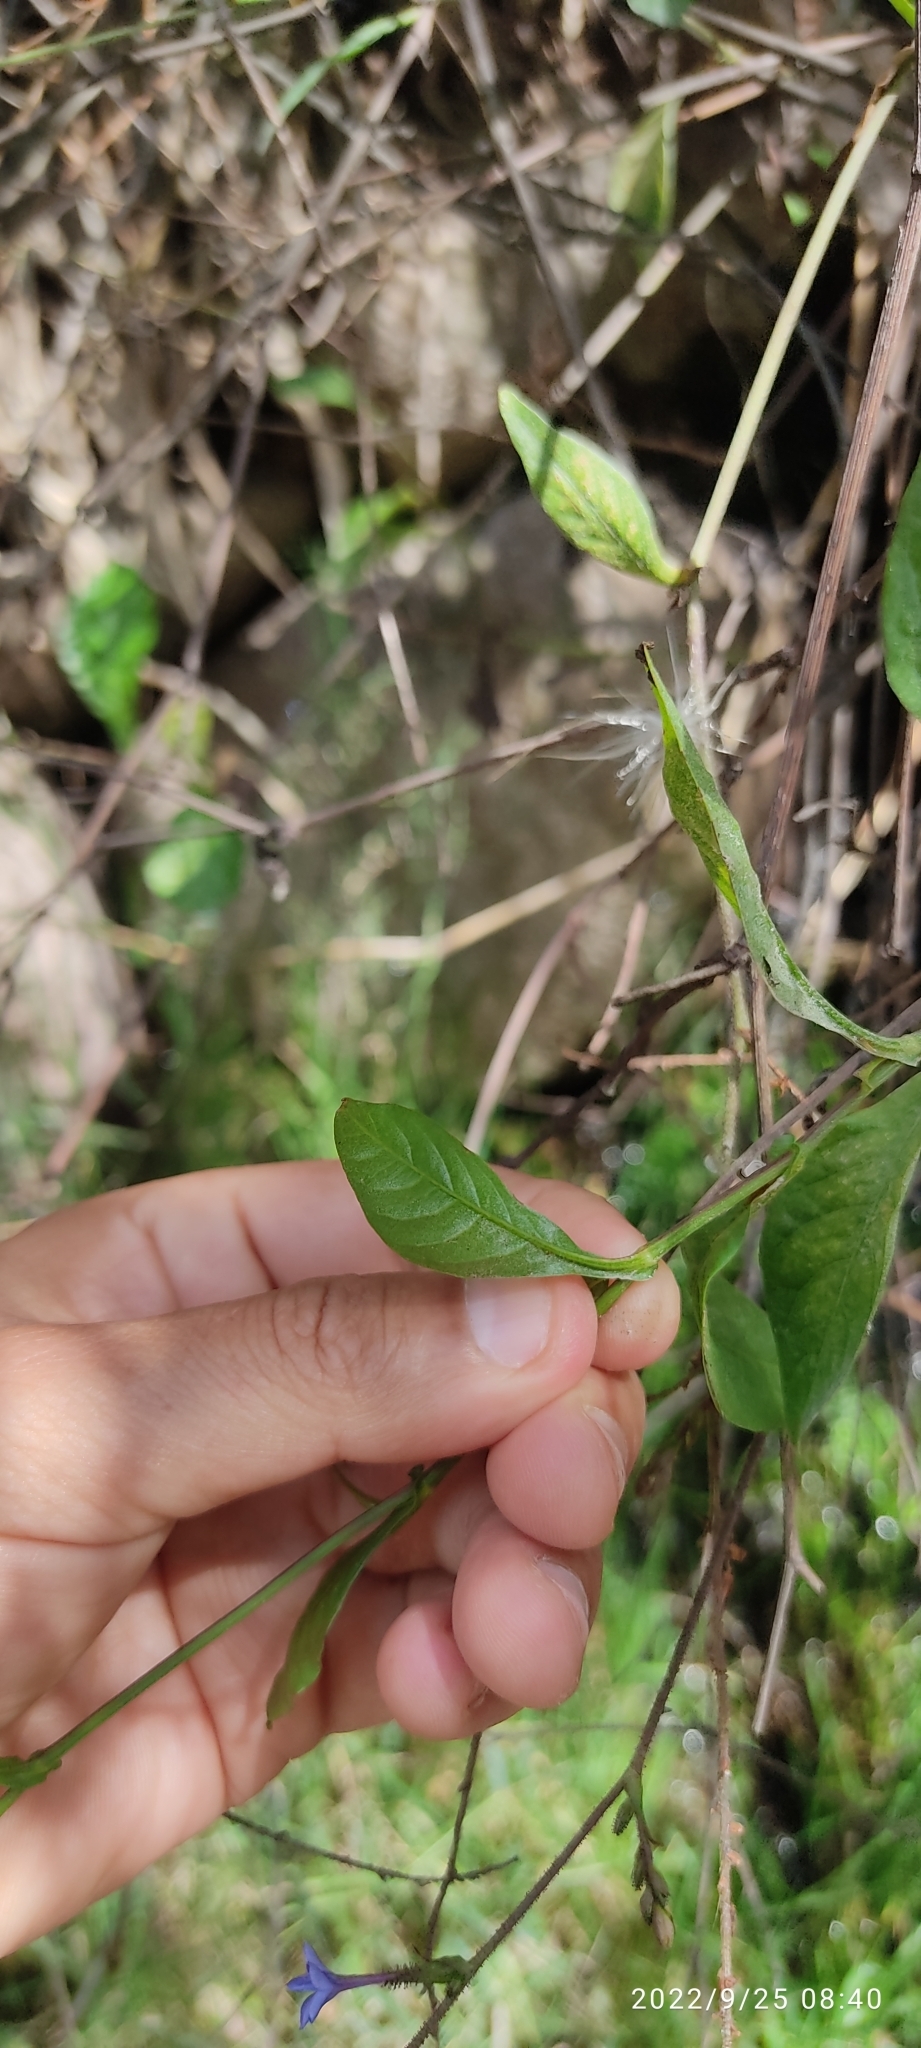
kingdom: Plantae
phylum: Tracheophyta
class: Magnoliopsida
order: Caryophyllales
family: Plumbaginaceae
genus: Plumbago
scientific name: Plumbago caerulea
